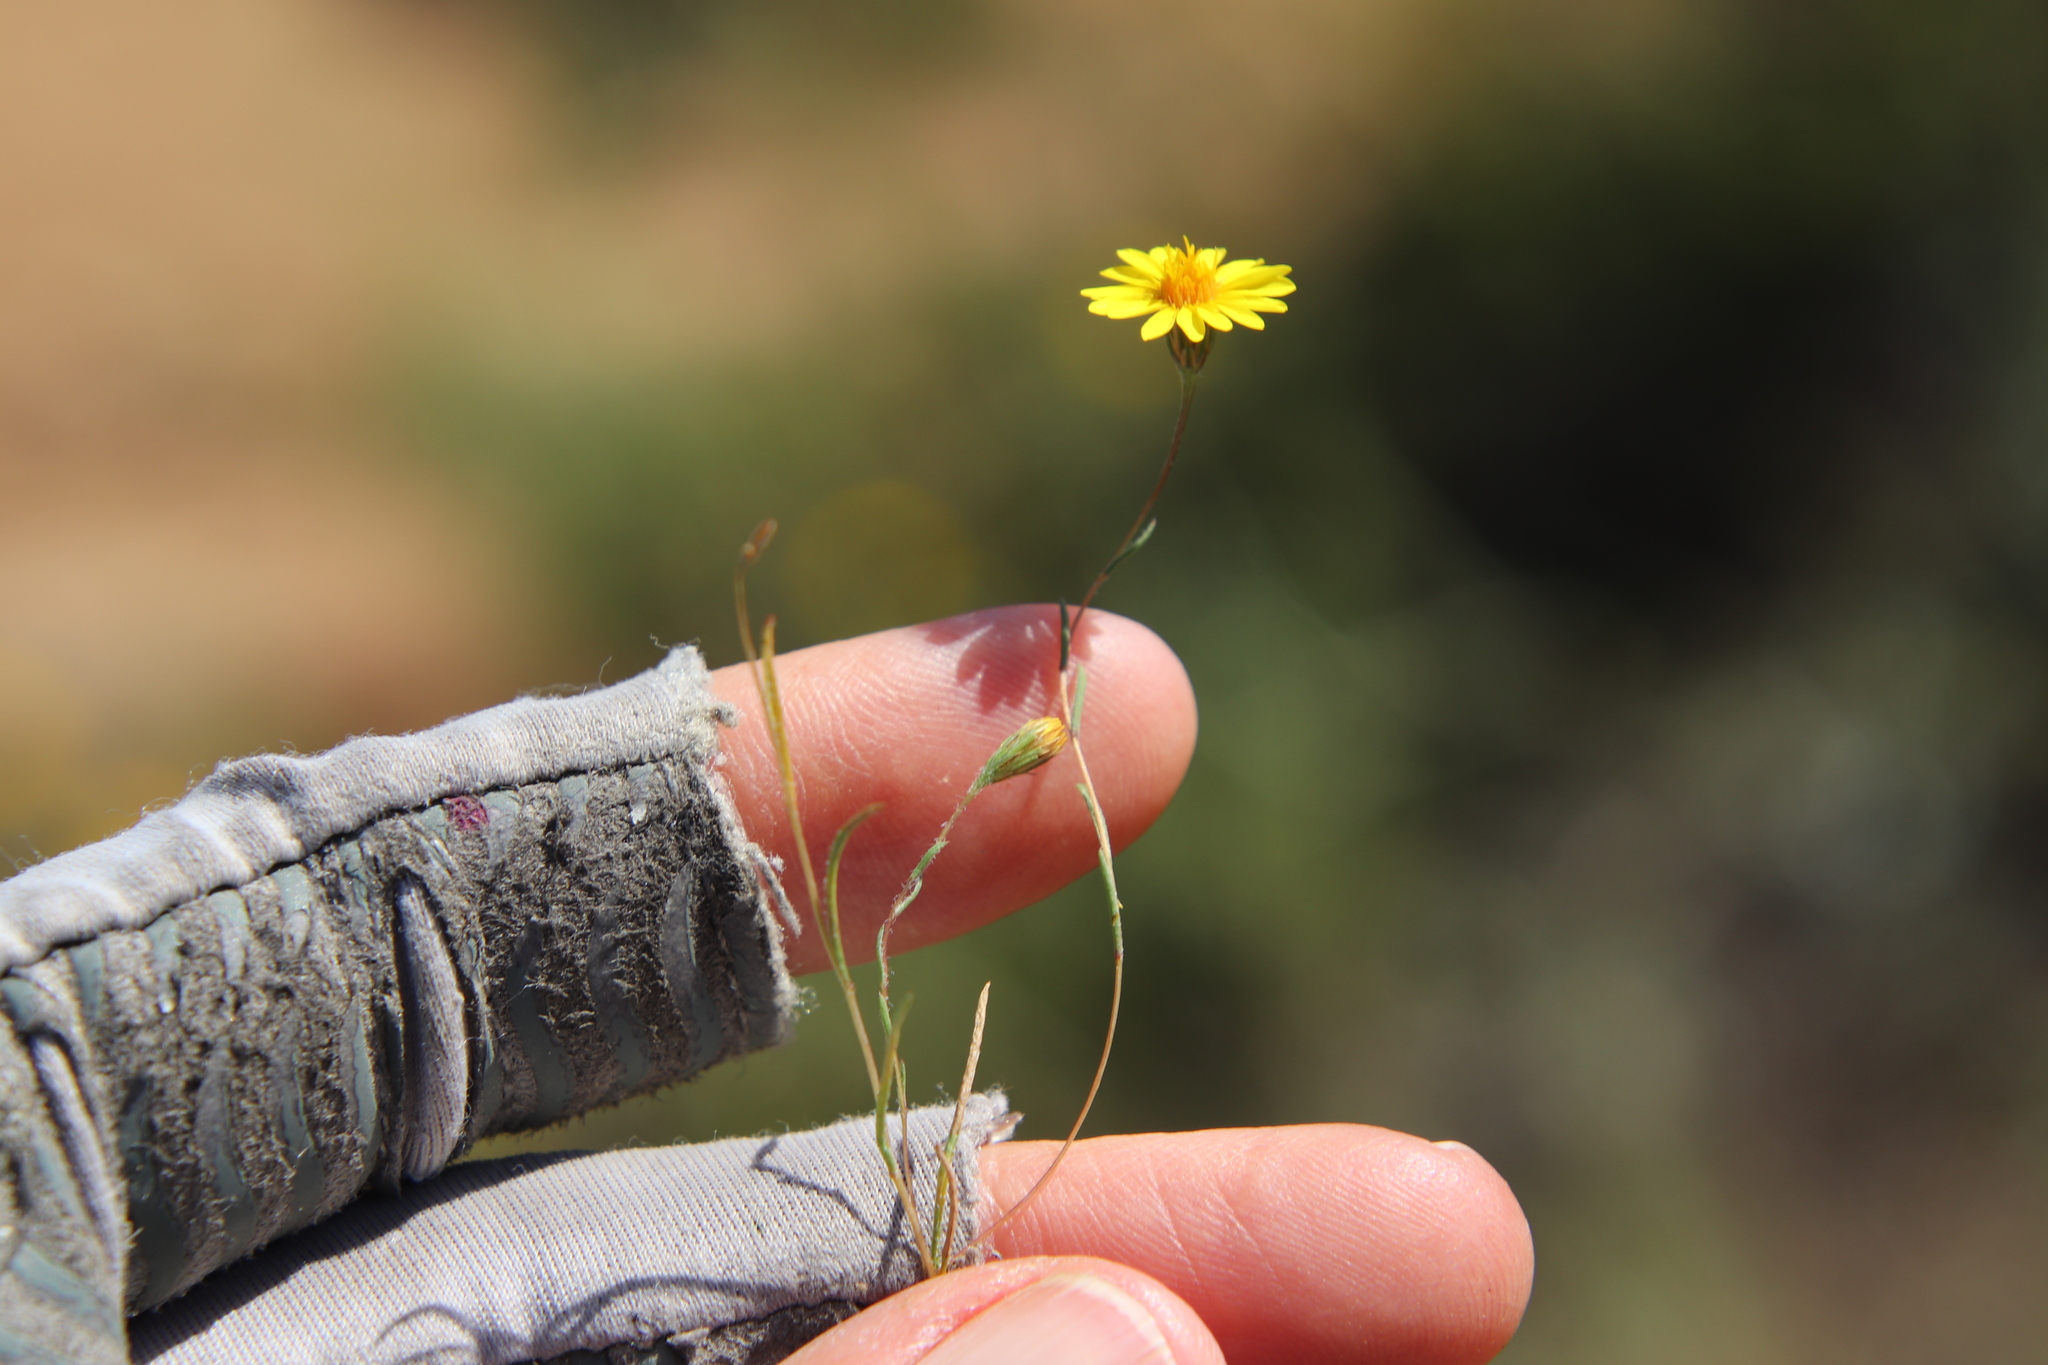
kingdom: Plantae
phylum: Tracheophyta
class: Magnoliopsida
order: Asterales
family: Asteraceae
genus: Pentachaeta
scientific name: Pentachaeta aurea
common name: Golden-ray pentachaeta
